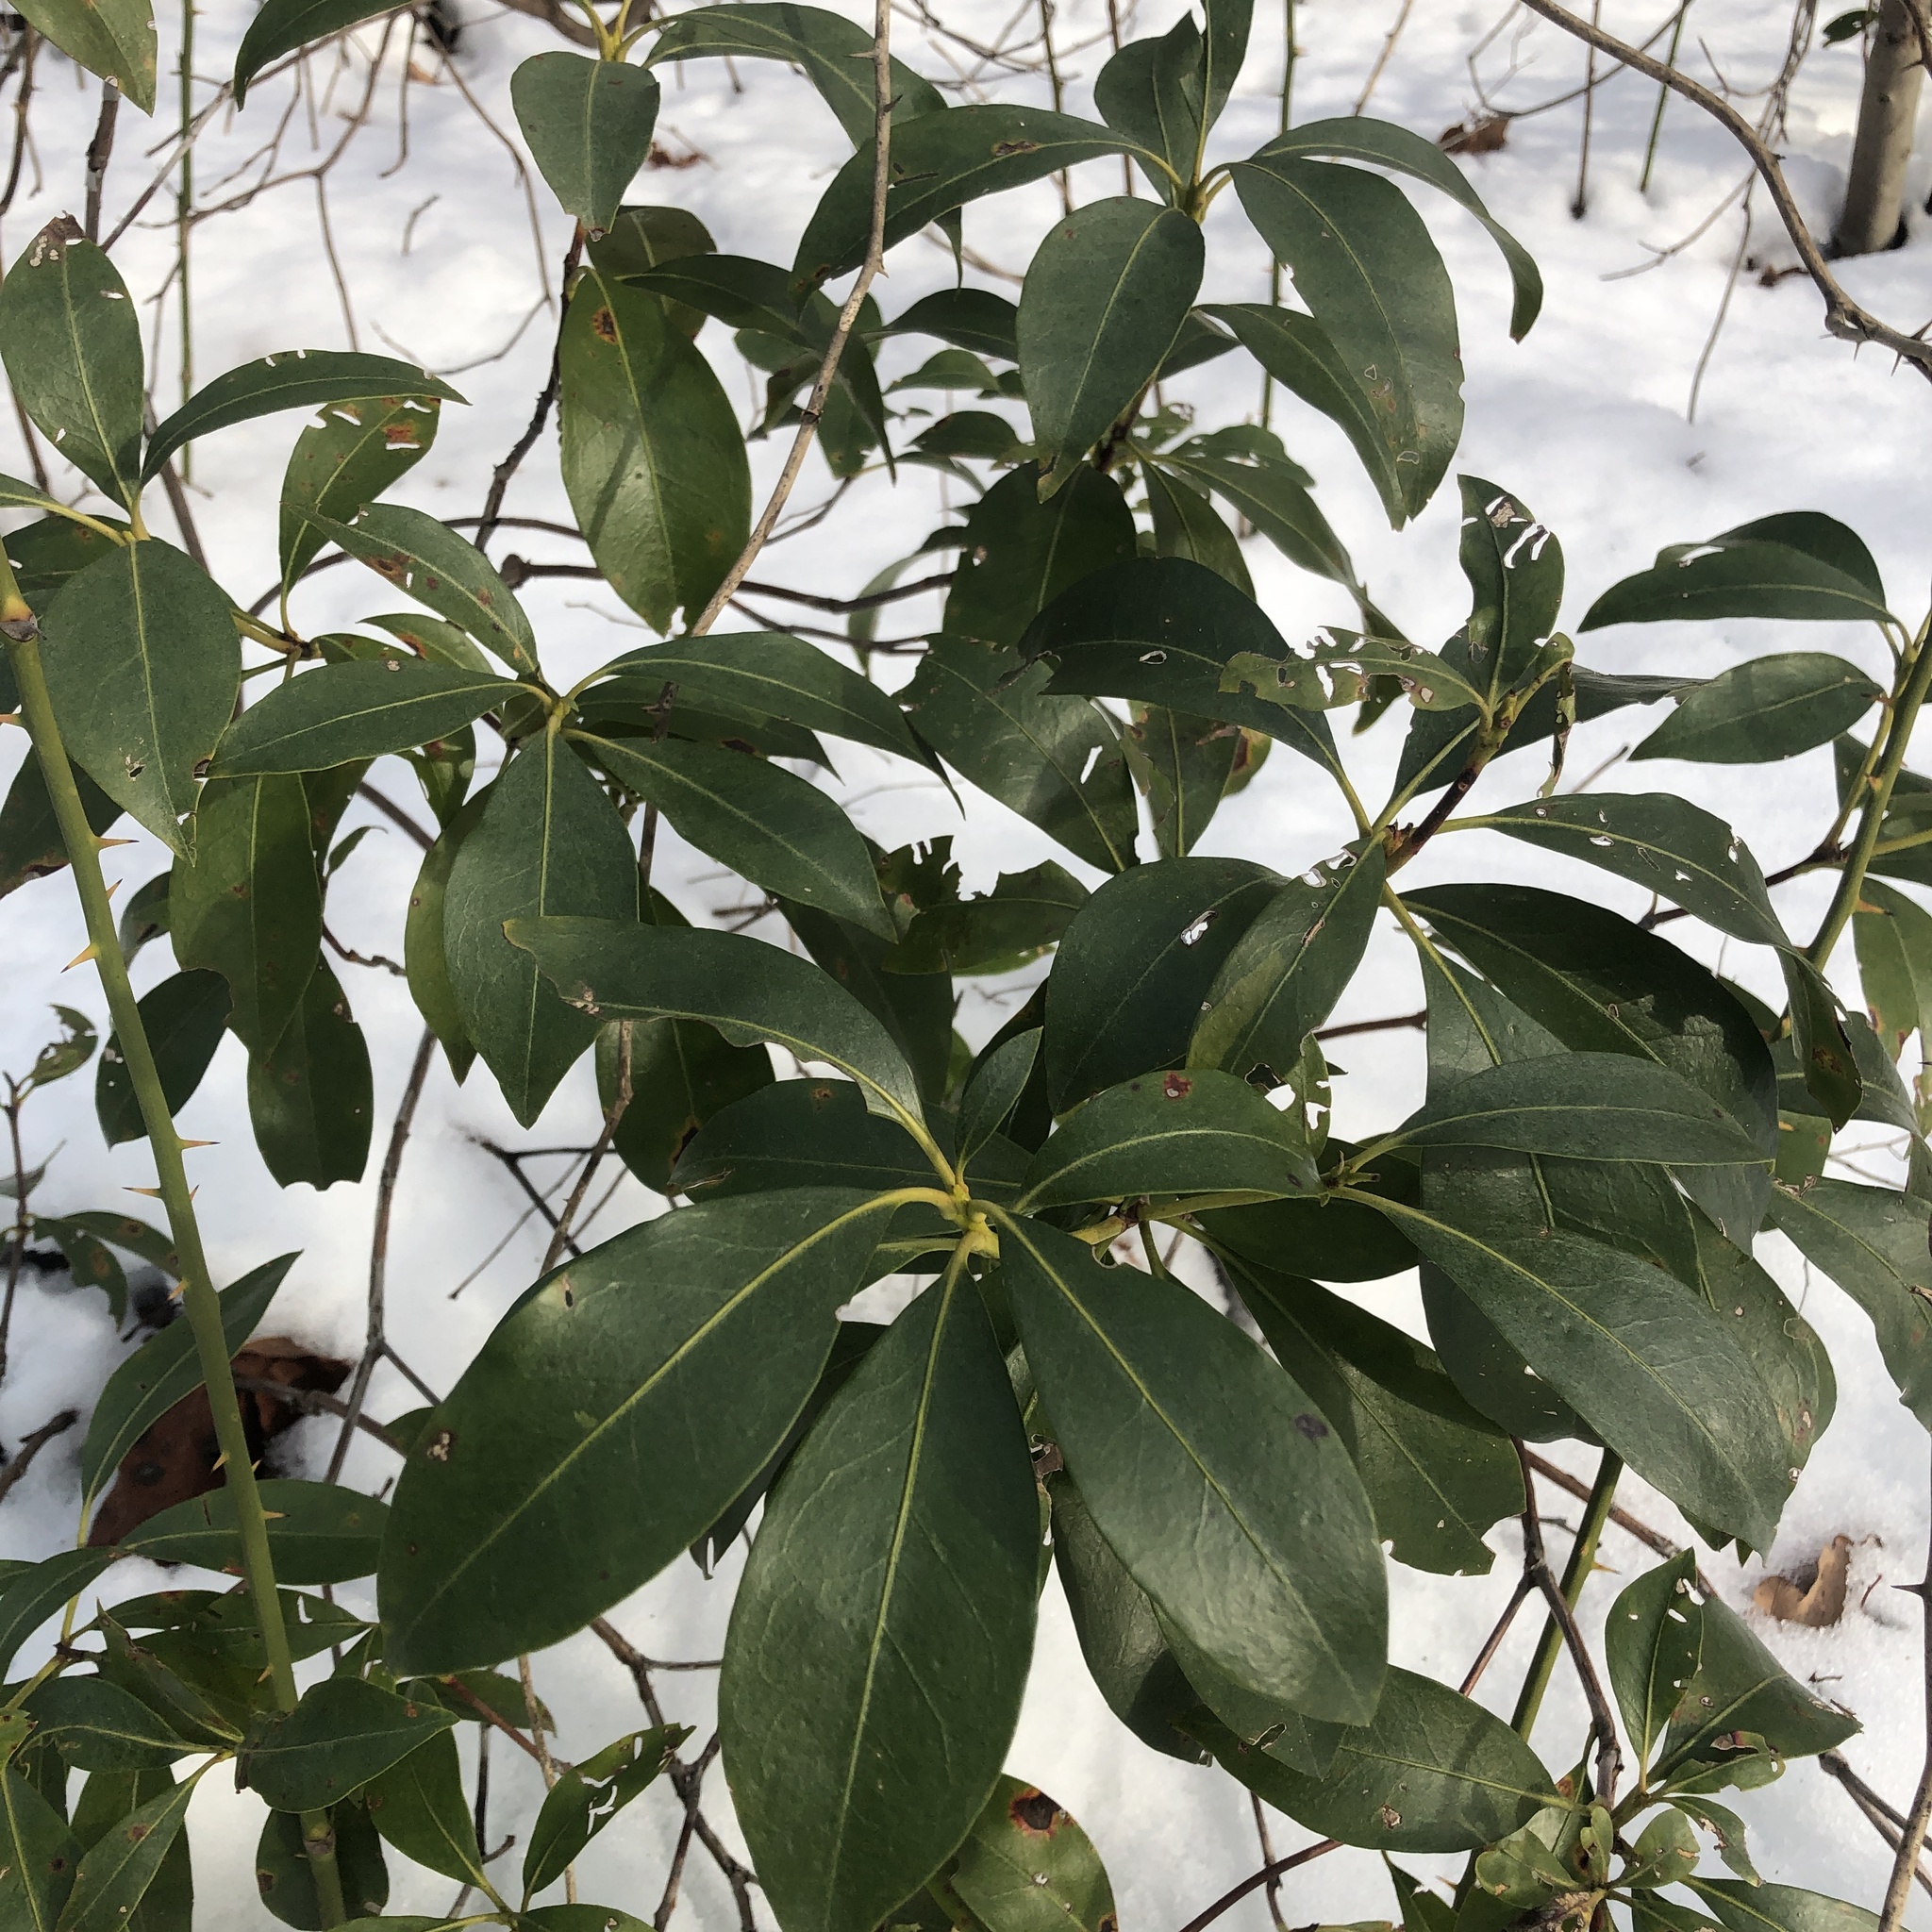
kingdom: Plantae
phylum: Tracheophyta
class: Magnoliopsida
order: Ericales
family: Ericaceae
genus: Kalmia
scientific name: Kalmia latifolia
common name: Mountain-laurel
